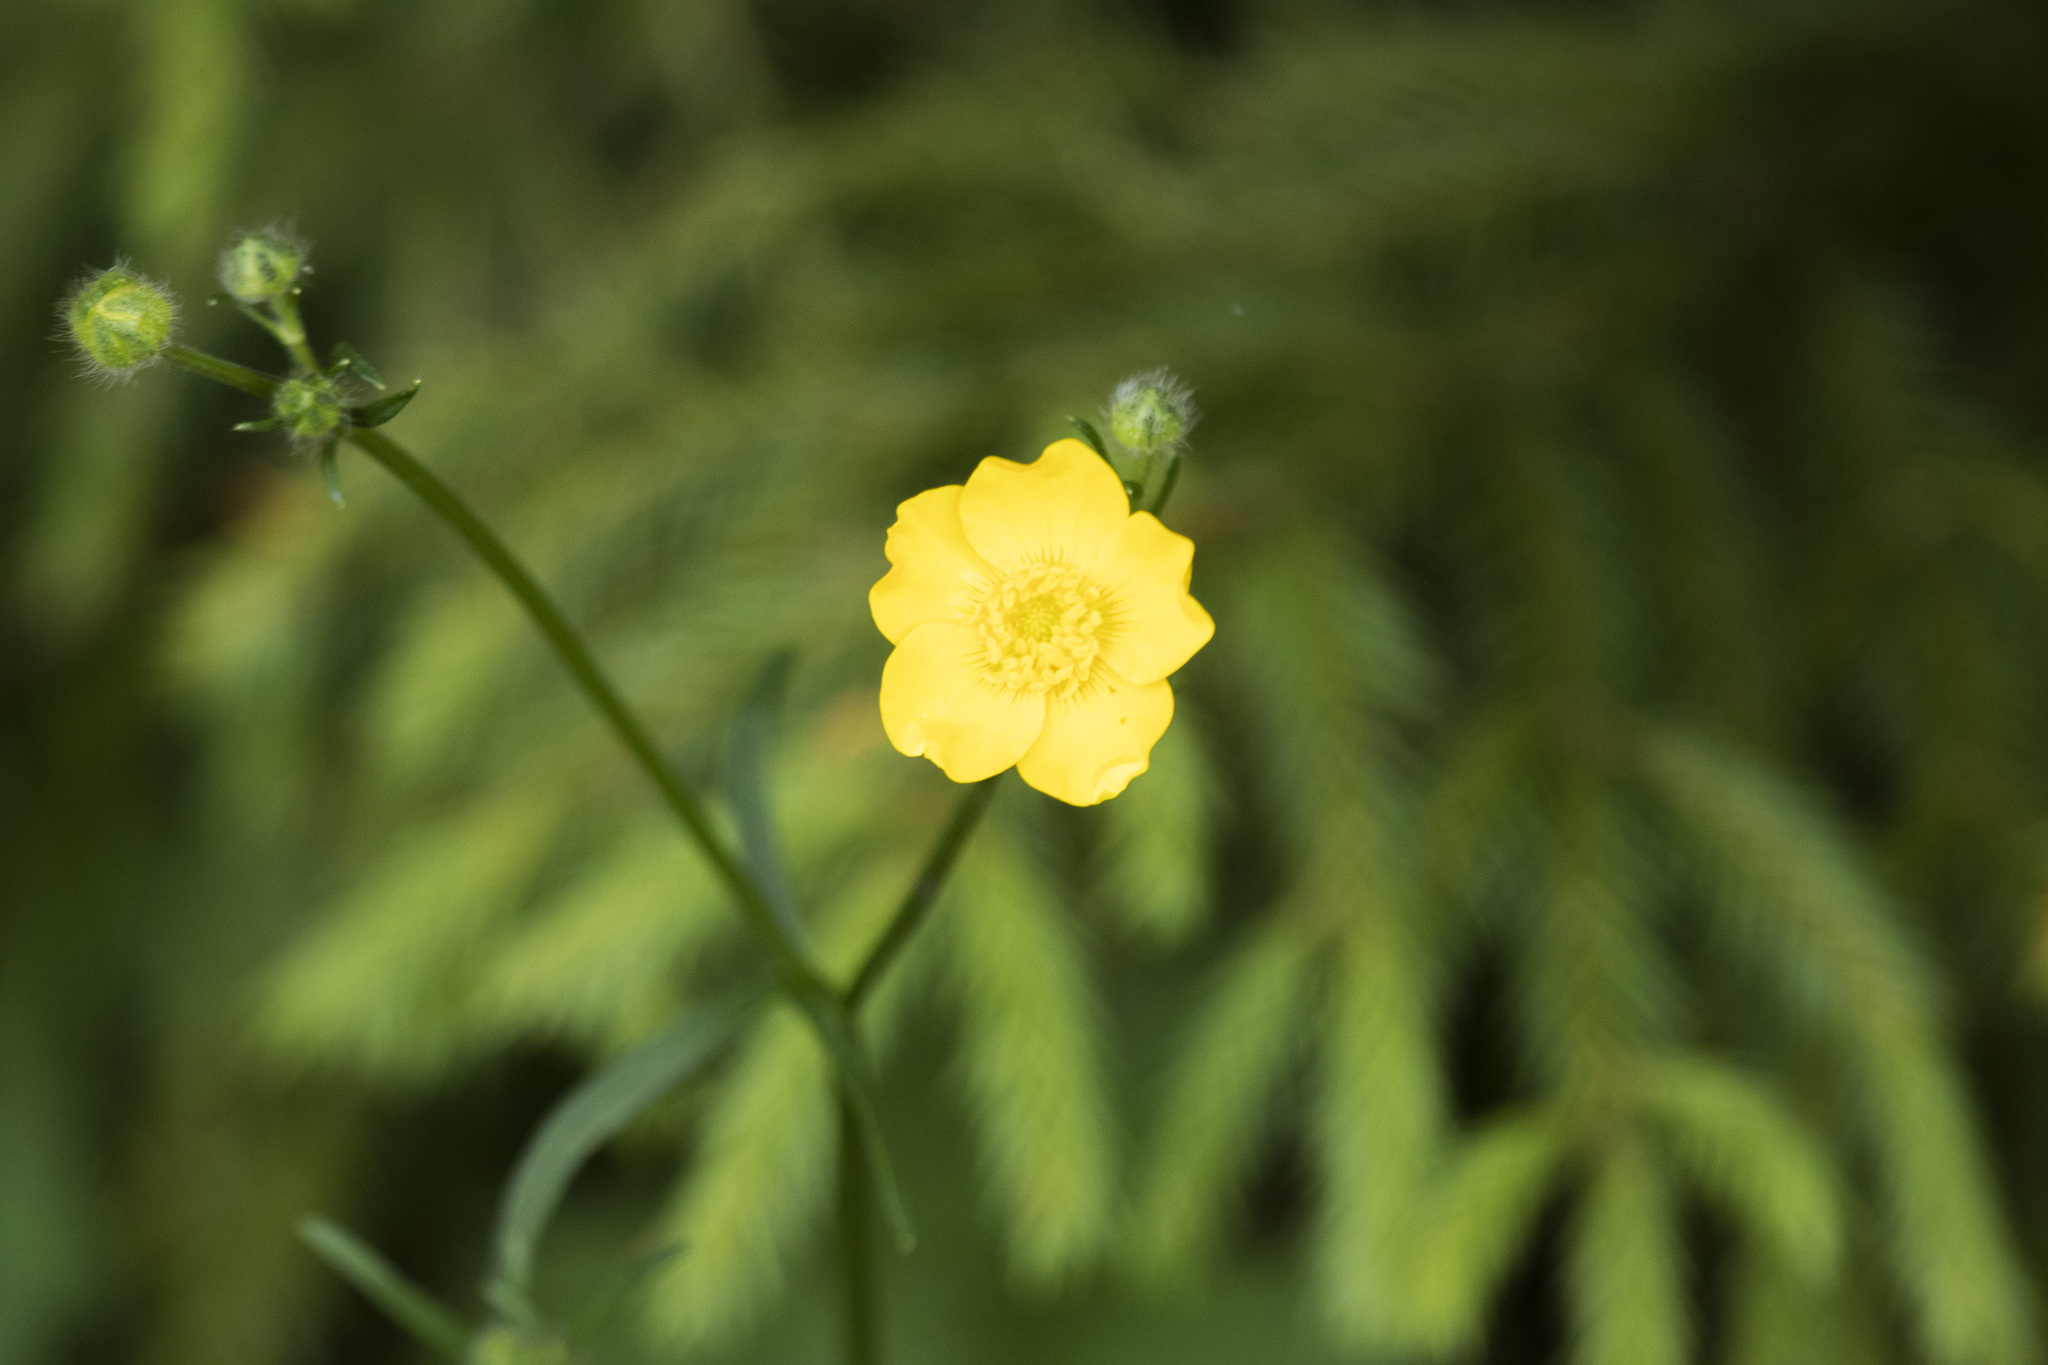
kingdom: Plantae
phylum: Tracheophyta
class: Magnoliopsida
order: Ranunculales
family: Ranunculaceae
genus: Ranunculus
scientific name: Ranunculus polyanthemos
